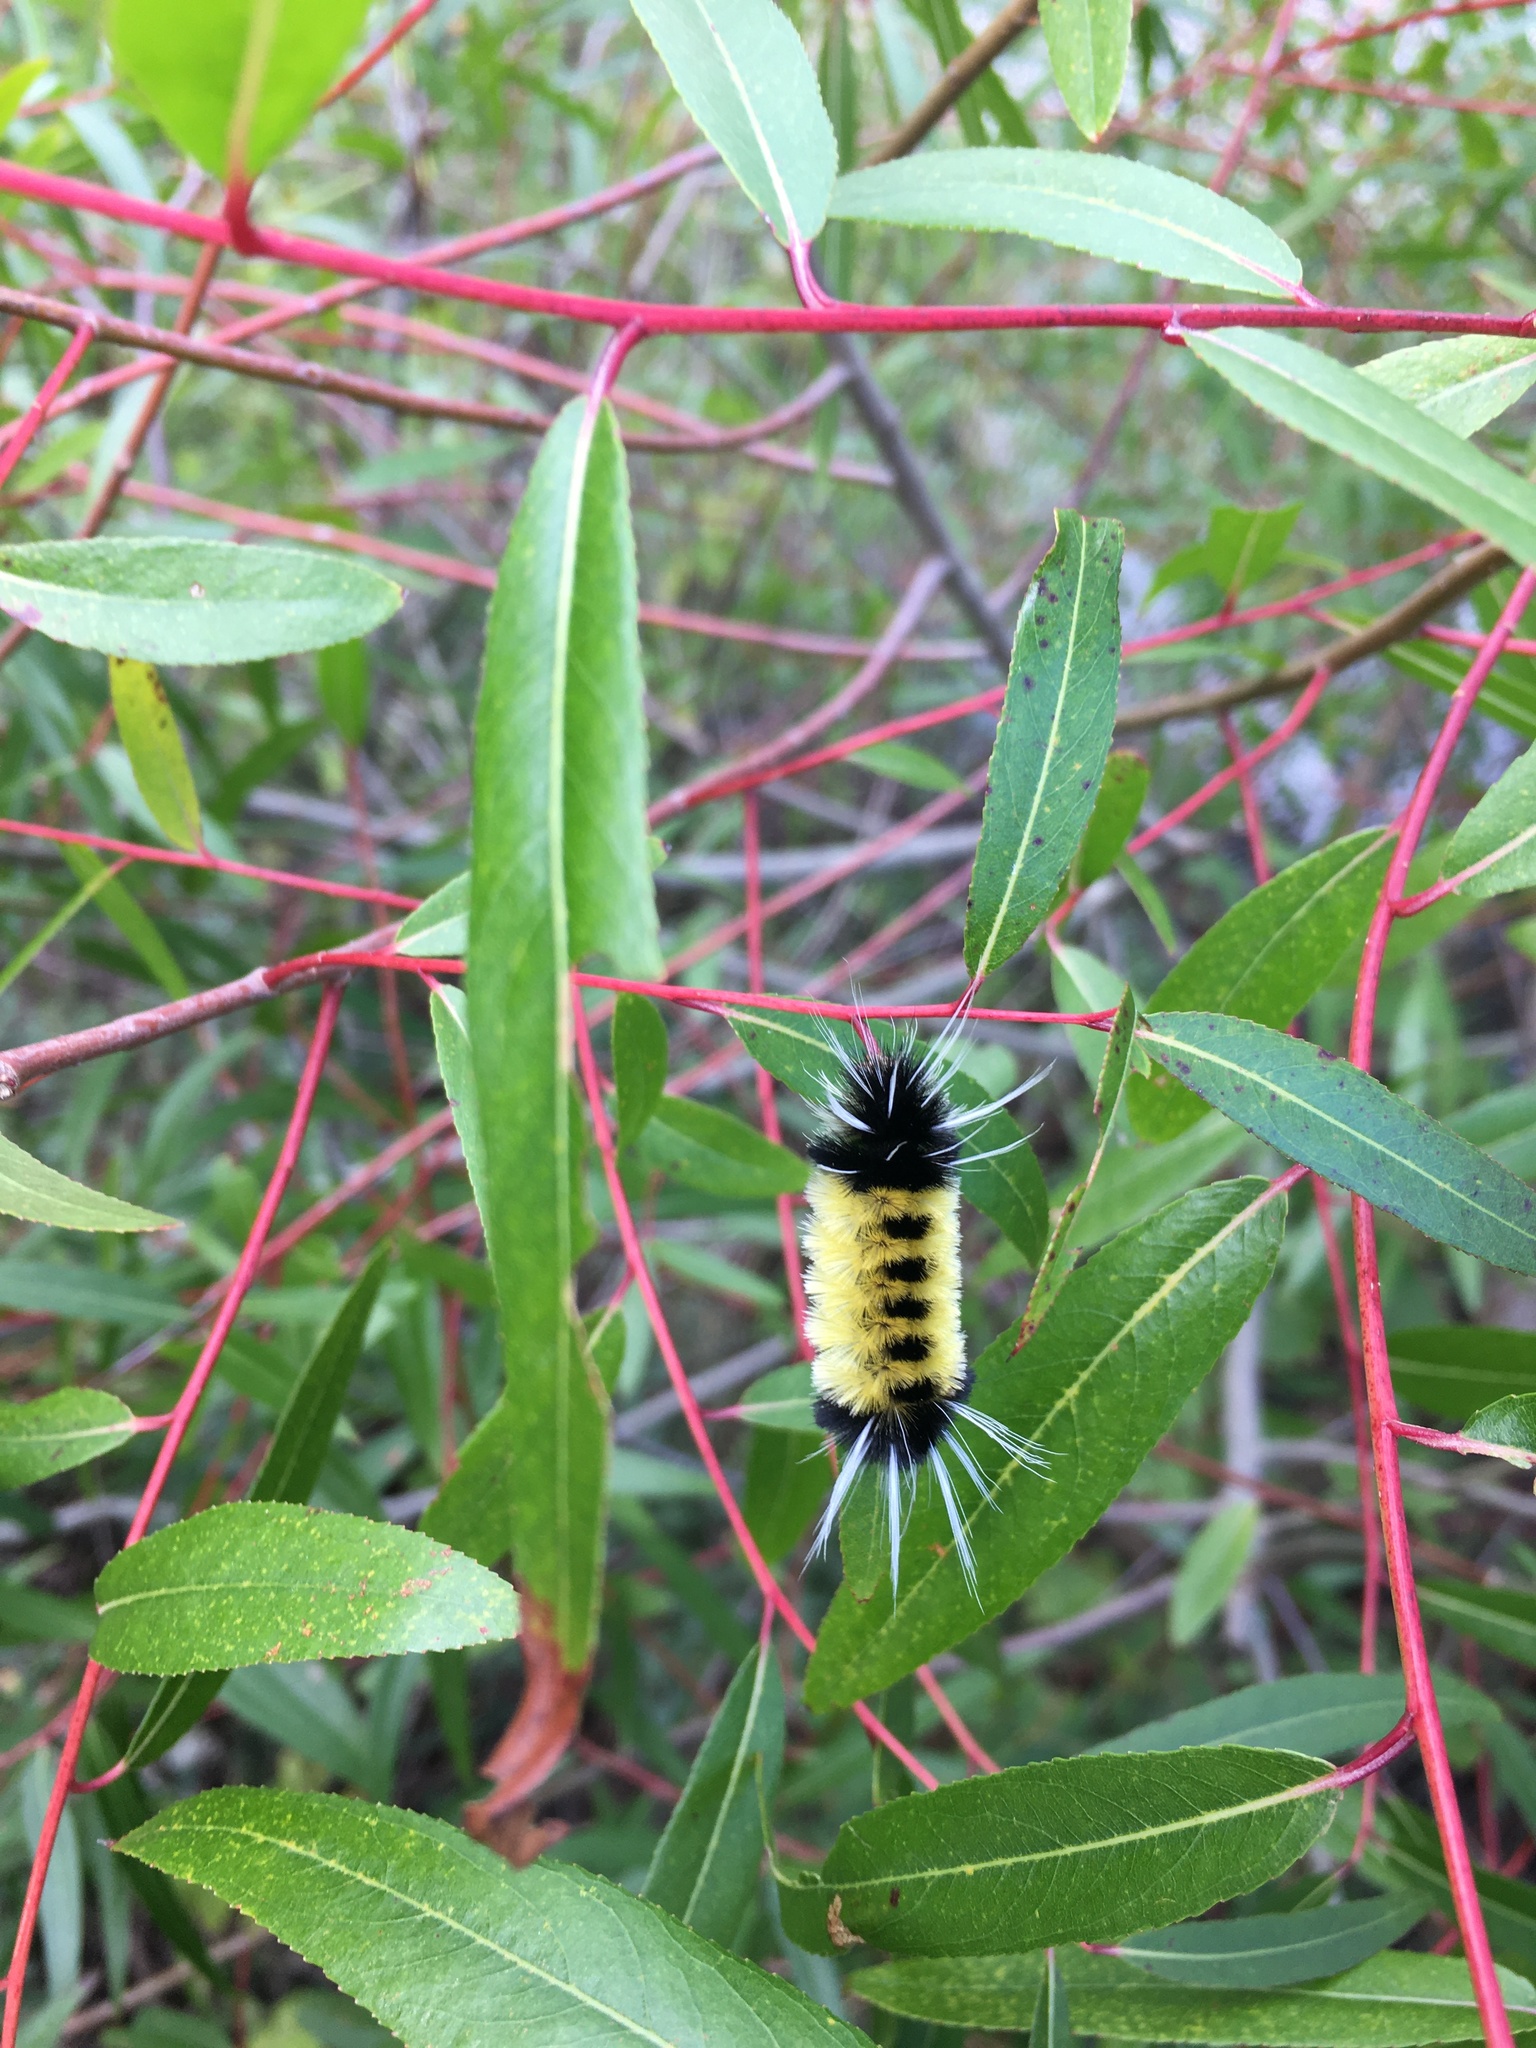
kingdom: Animalia
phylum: Arthropoda
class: Insecta
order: Lepidoptera
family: Erebidae
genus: Lophocampa
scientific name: Lophocampa maculata
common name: Spotted tussock moth
